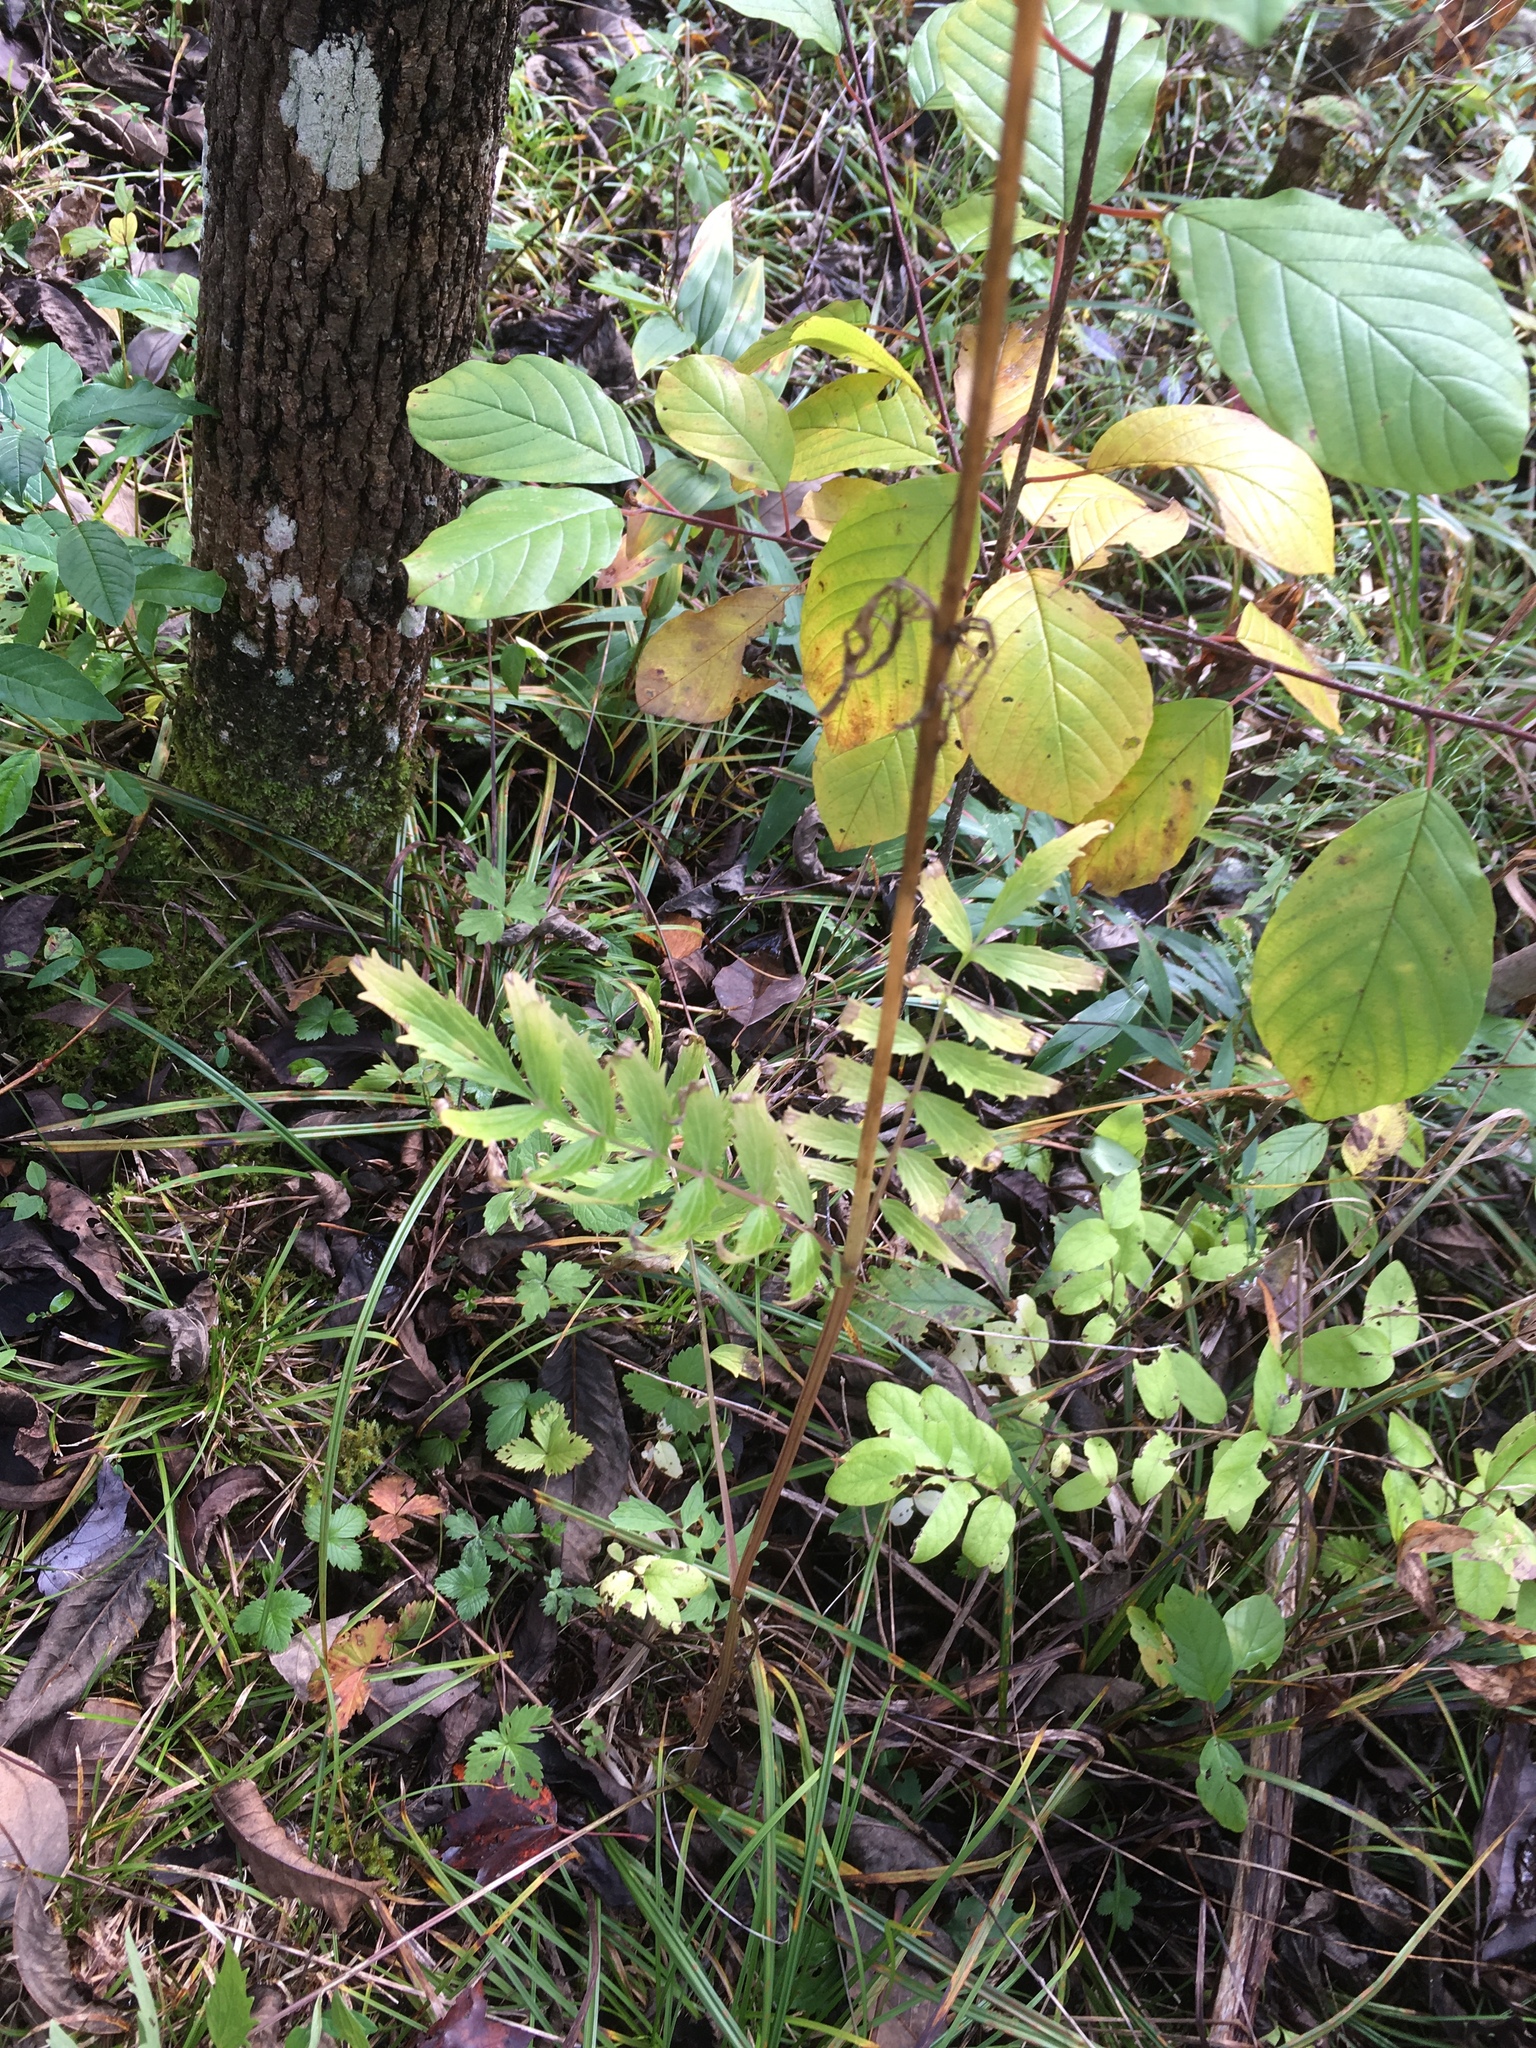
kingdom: Plantae
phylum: Tracheophyta
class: Magnoliopsida
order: Apiales
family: Apiaceae
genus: Sium
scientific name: Sium suave
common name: Hemlock water-parsnip
